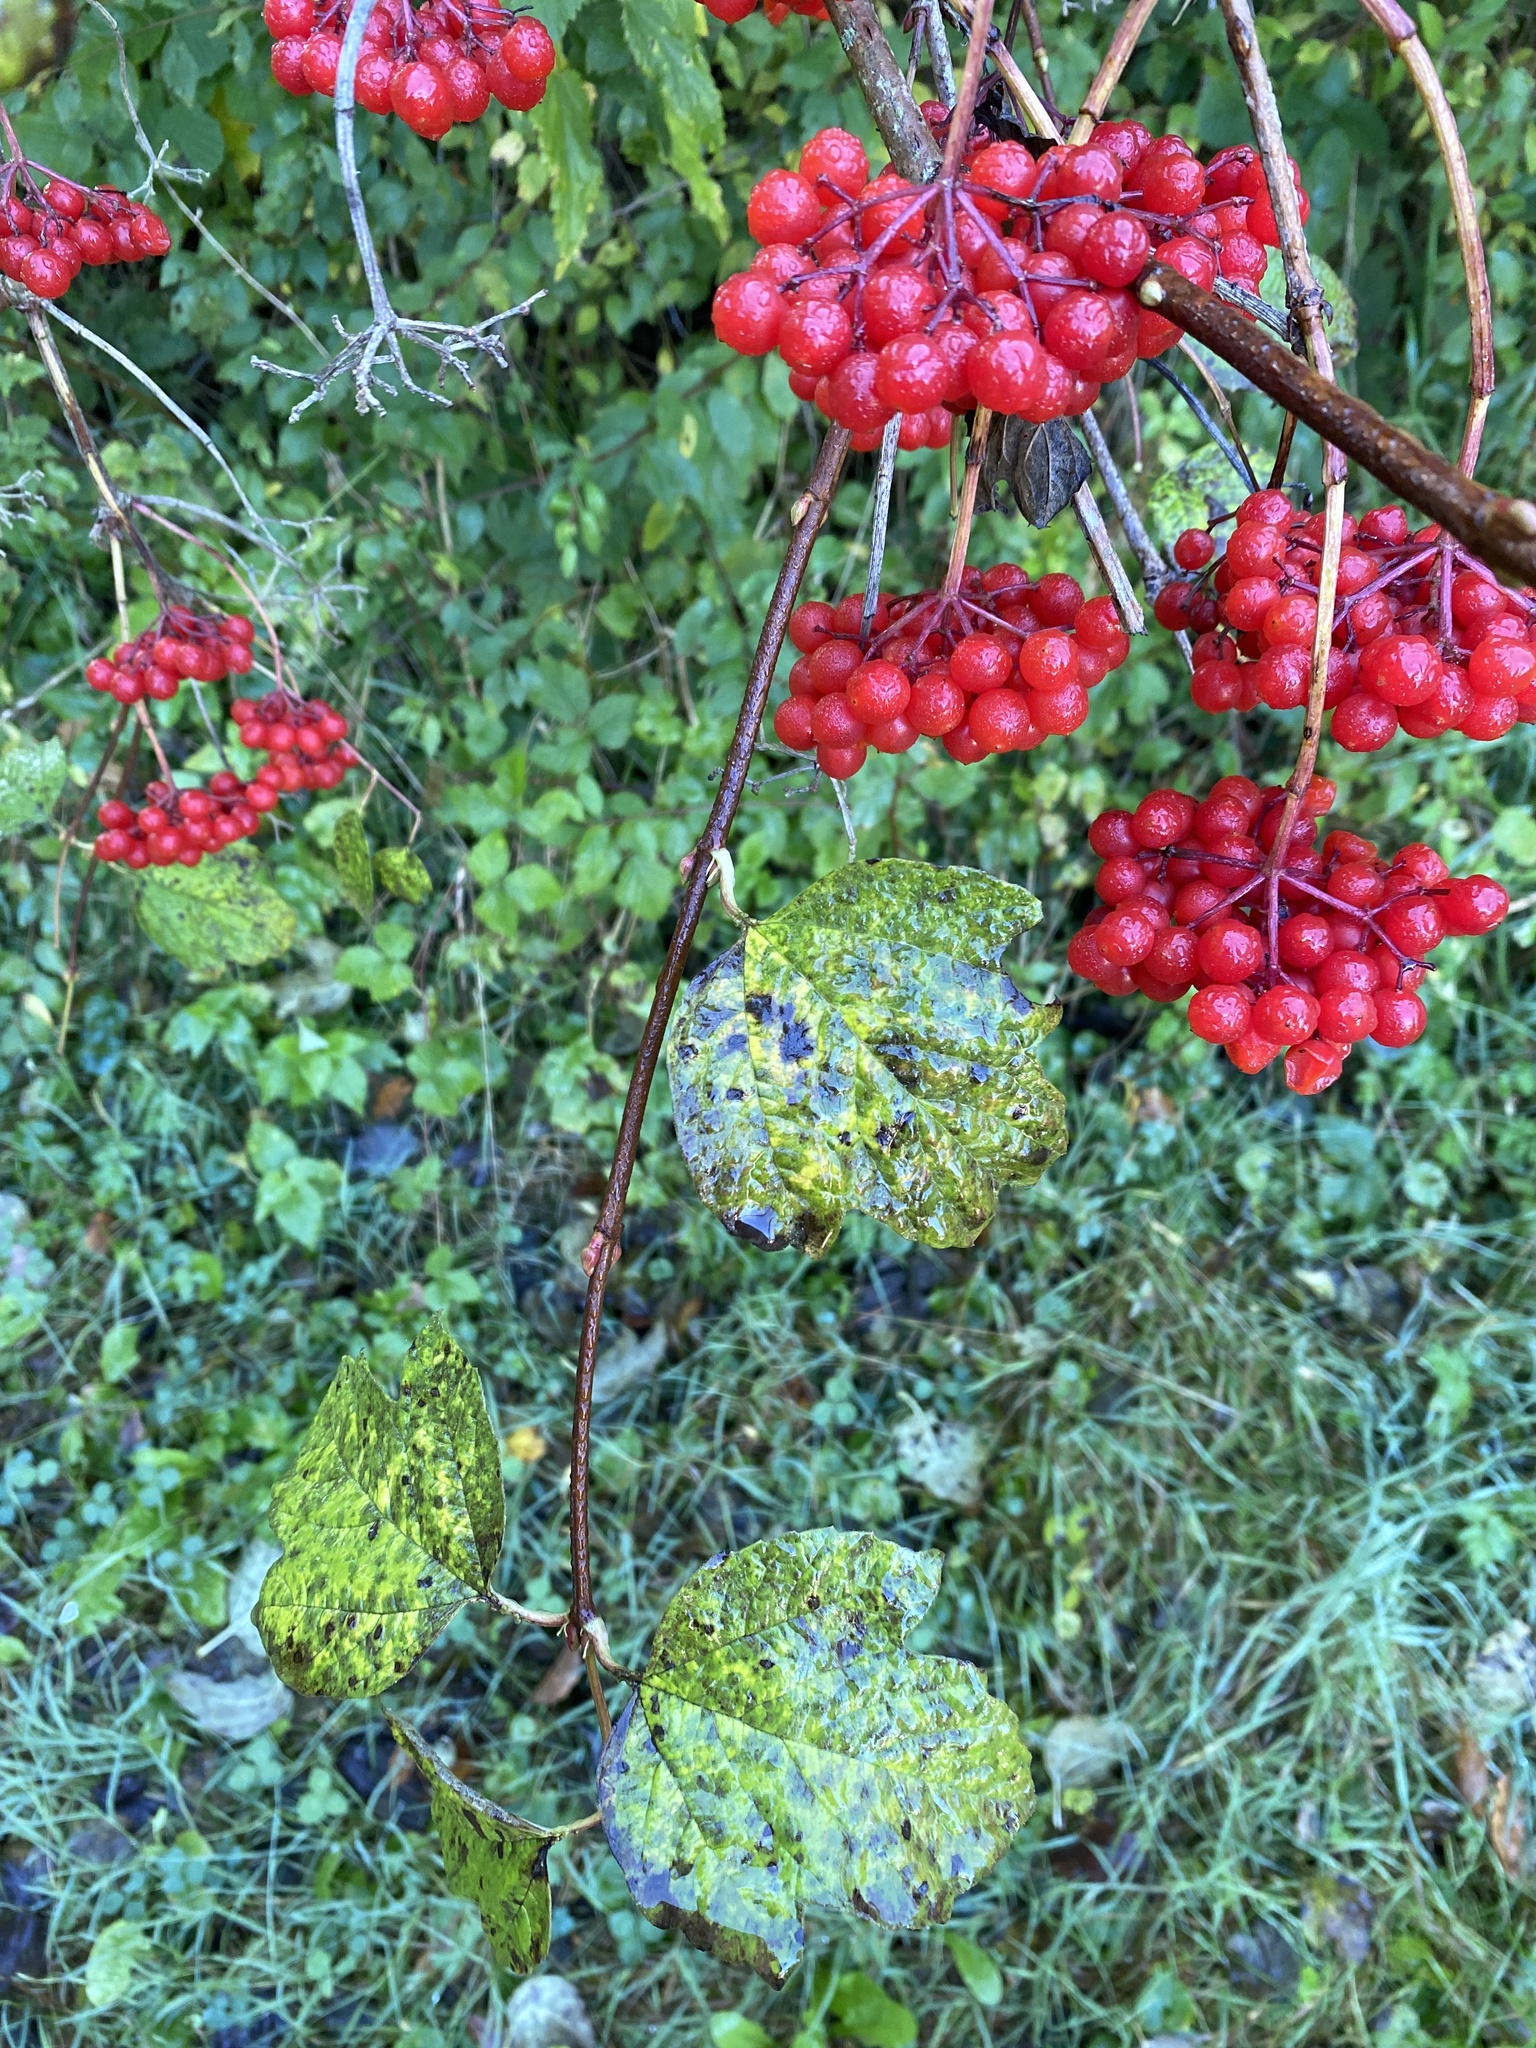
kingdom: Plantae
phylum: Tracheophyta
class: Magnoliopsida
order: Dipsacales
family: Viburnaceae
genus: Viburnum
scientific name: Viburnum opulus
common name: Guelder-rose
